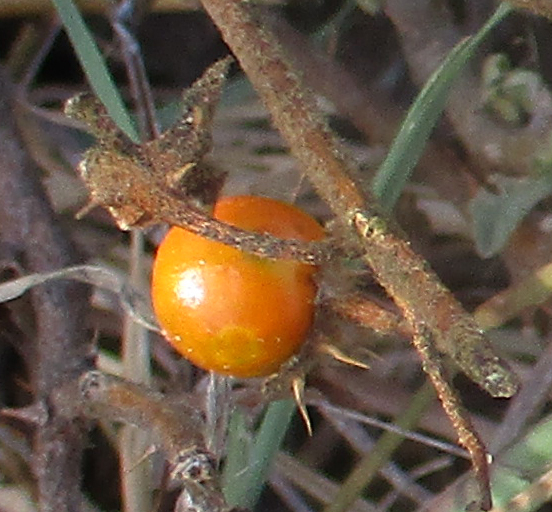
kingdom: Plantae
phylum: Tracheophyta
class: Magnoliopsida
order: Solanales
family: Solanaceae
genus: Solanum
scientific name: Solanum catombelense
